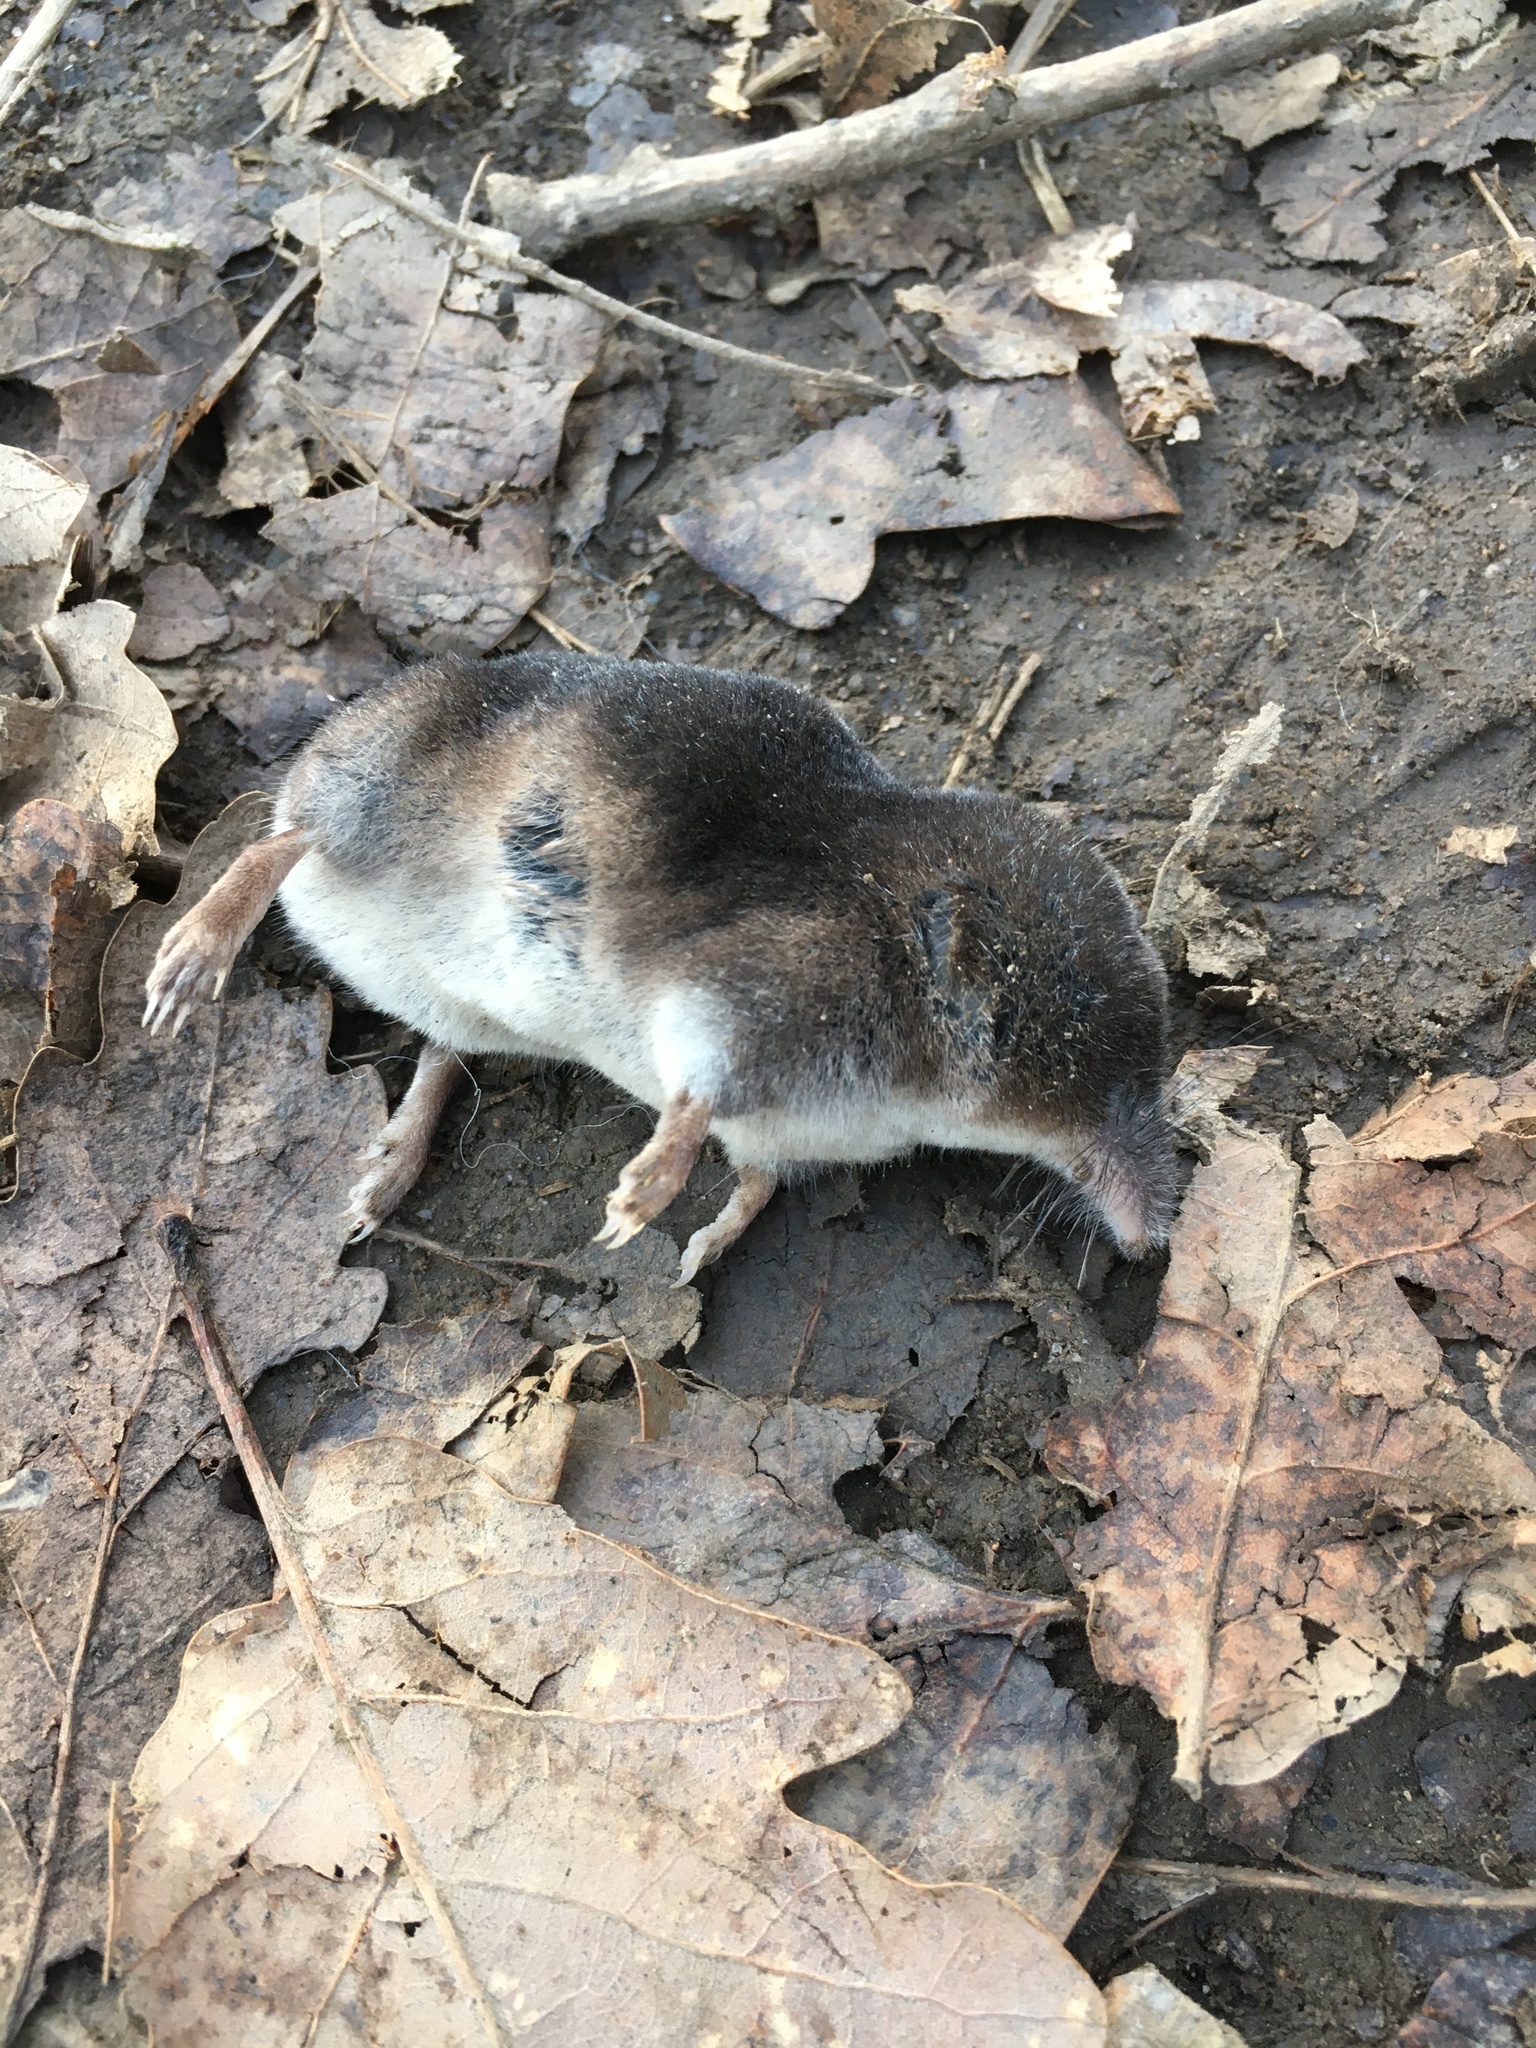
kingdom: Animalia
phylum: Chordata
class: Mammalia
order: Soricomorpha
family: Soricidae
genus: Sorex
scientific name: Sorex araneus
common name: Common shrew
